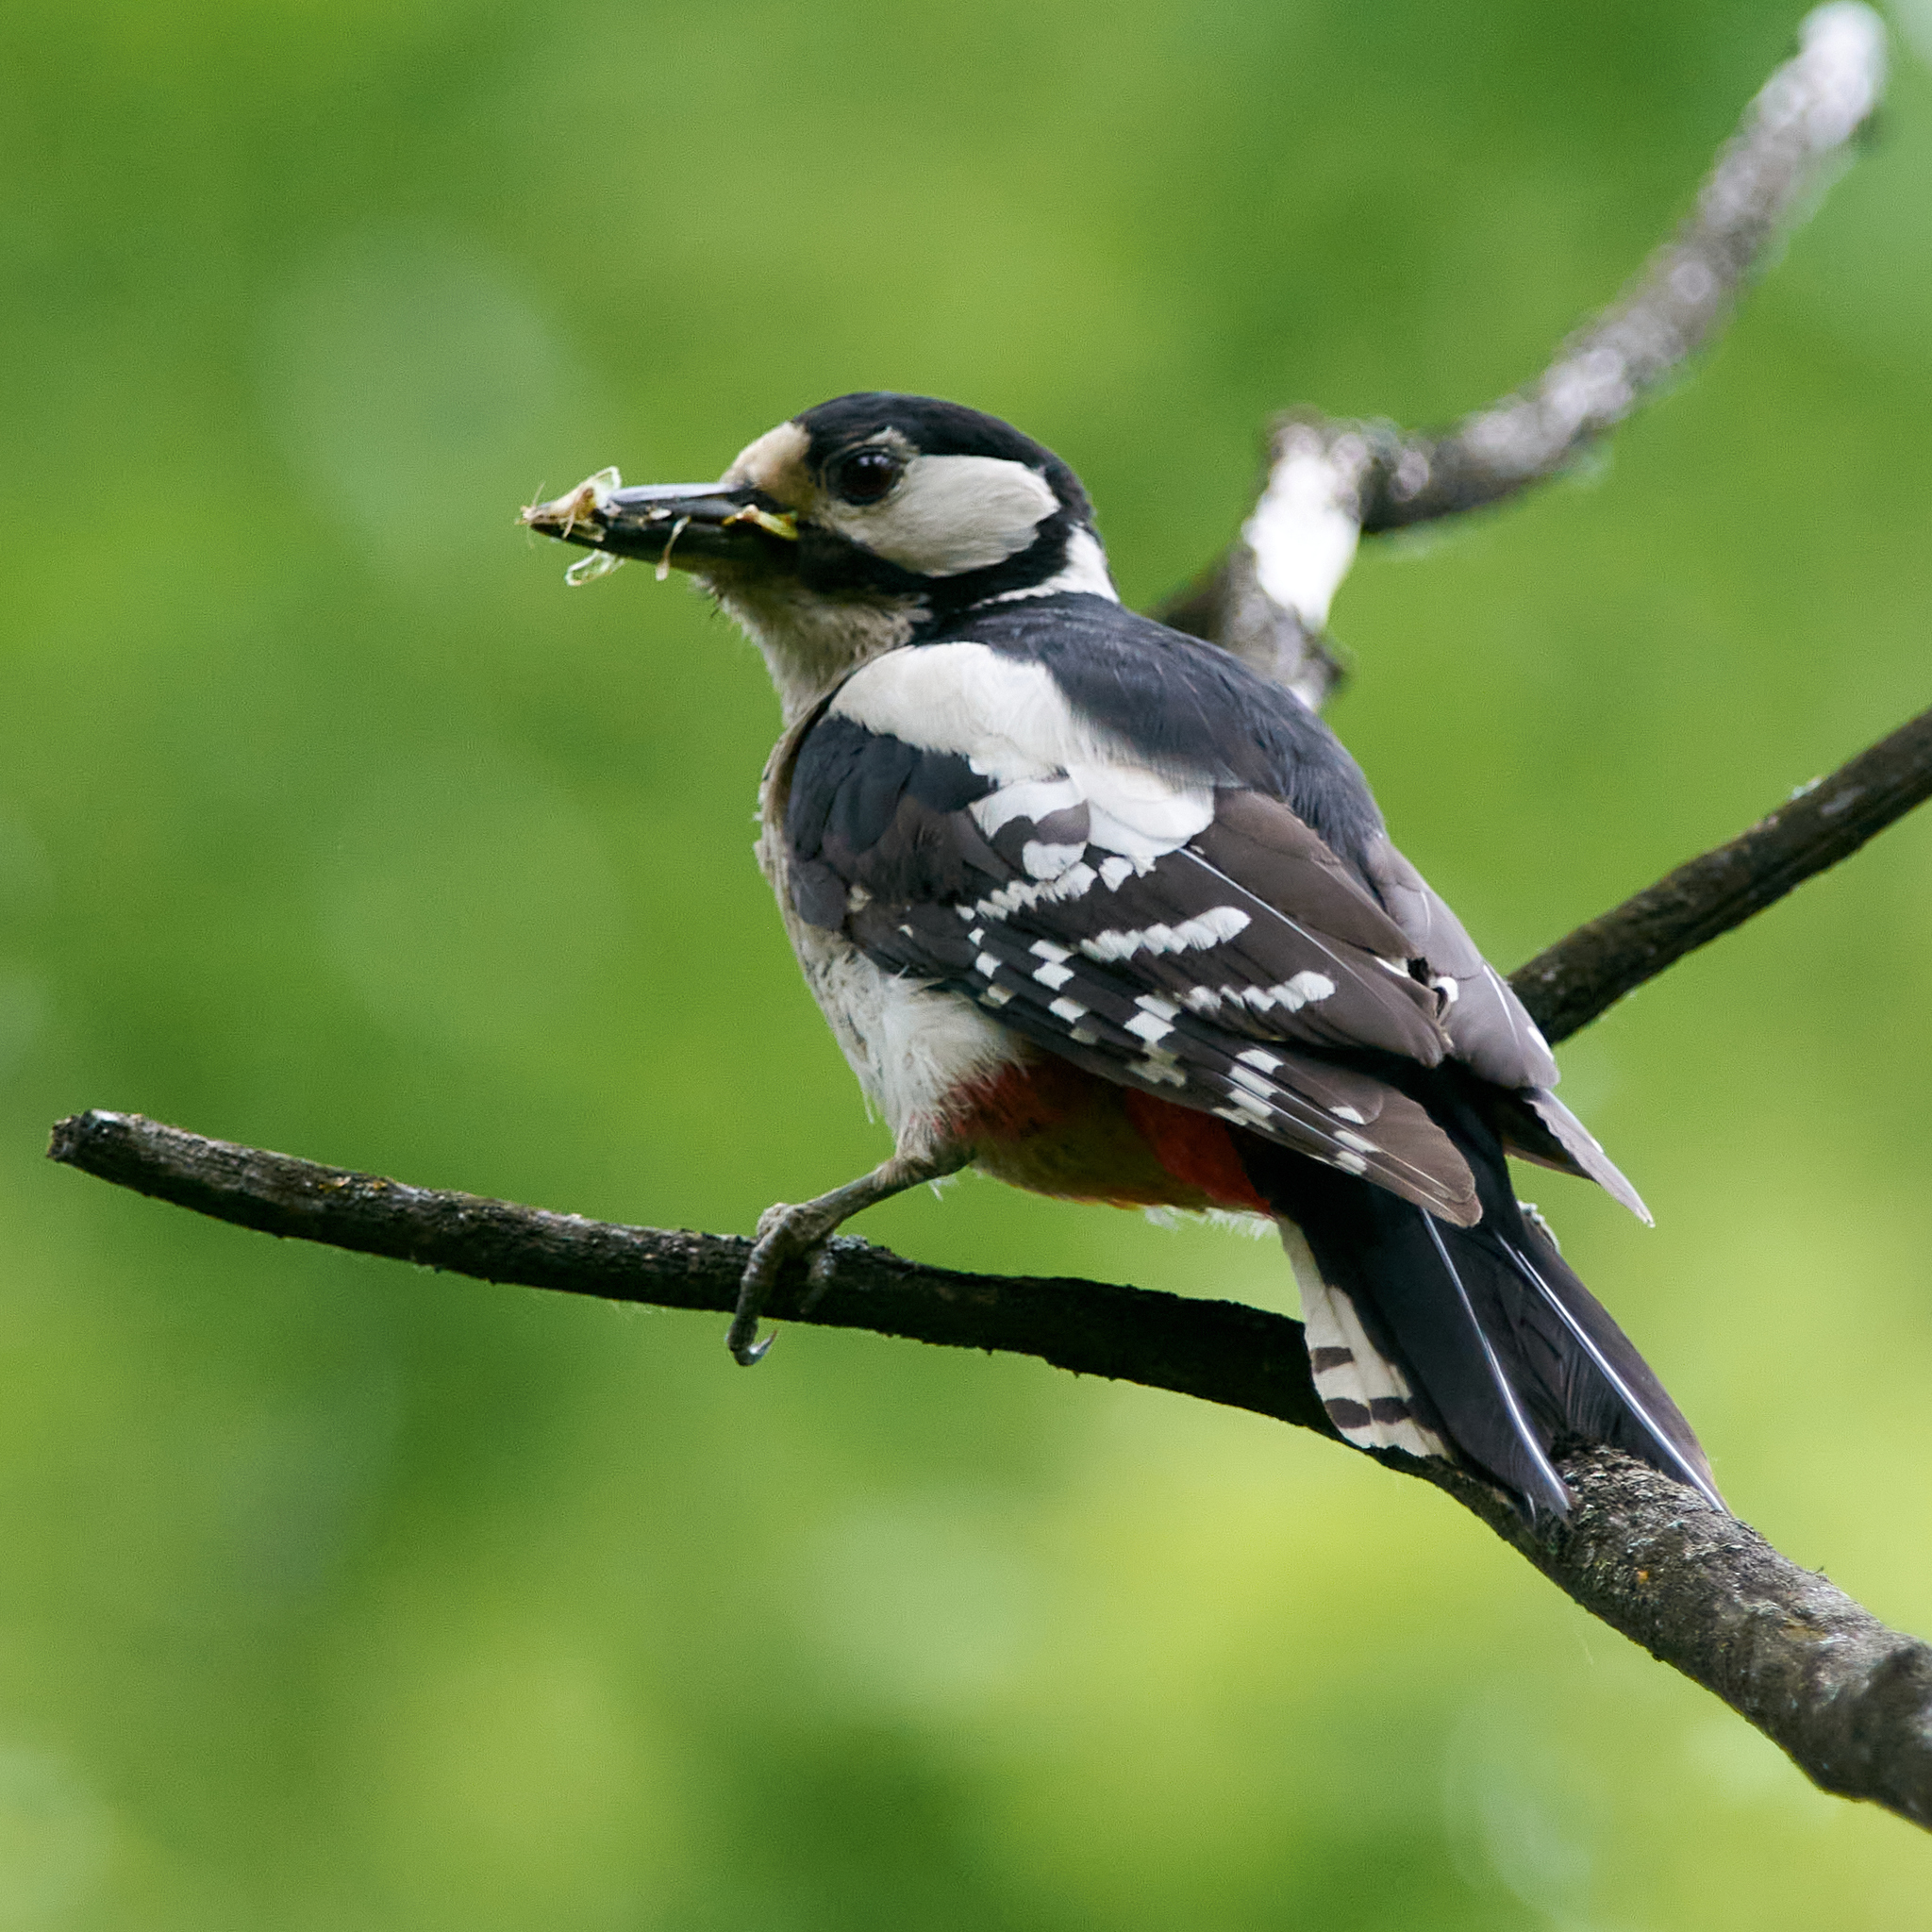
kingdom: Animalia
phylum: Chordata
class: Aves
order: Piciformes
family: Picidae
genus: Dendrocopos
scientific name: Dendrocopos major
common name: Great spotted woodpecker
